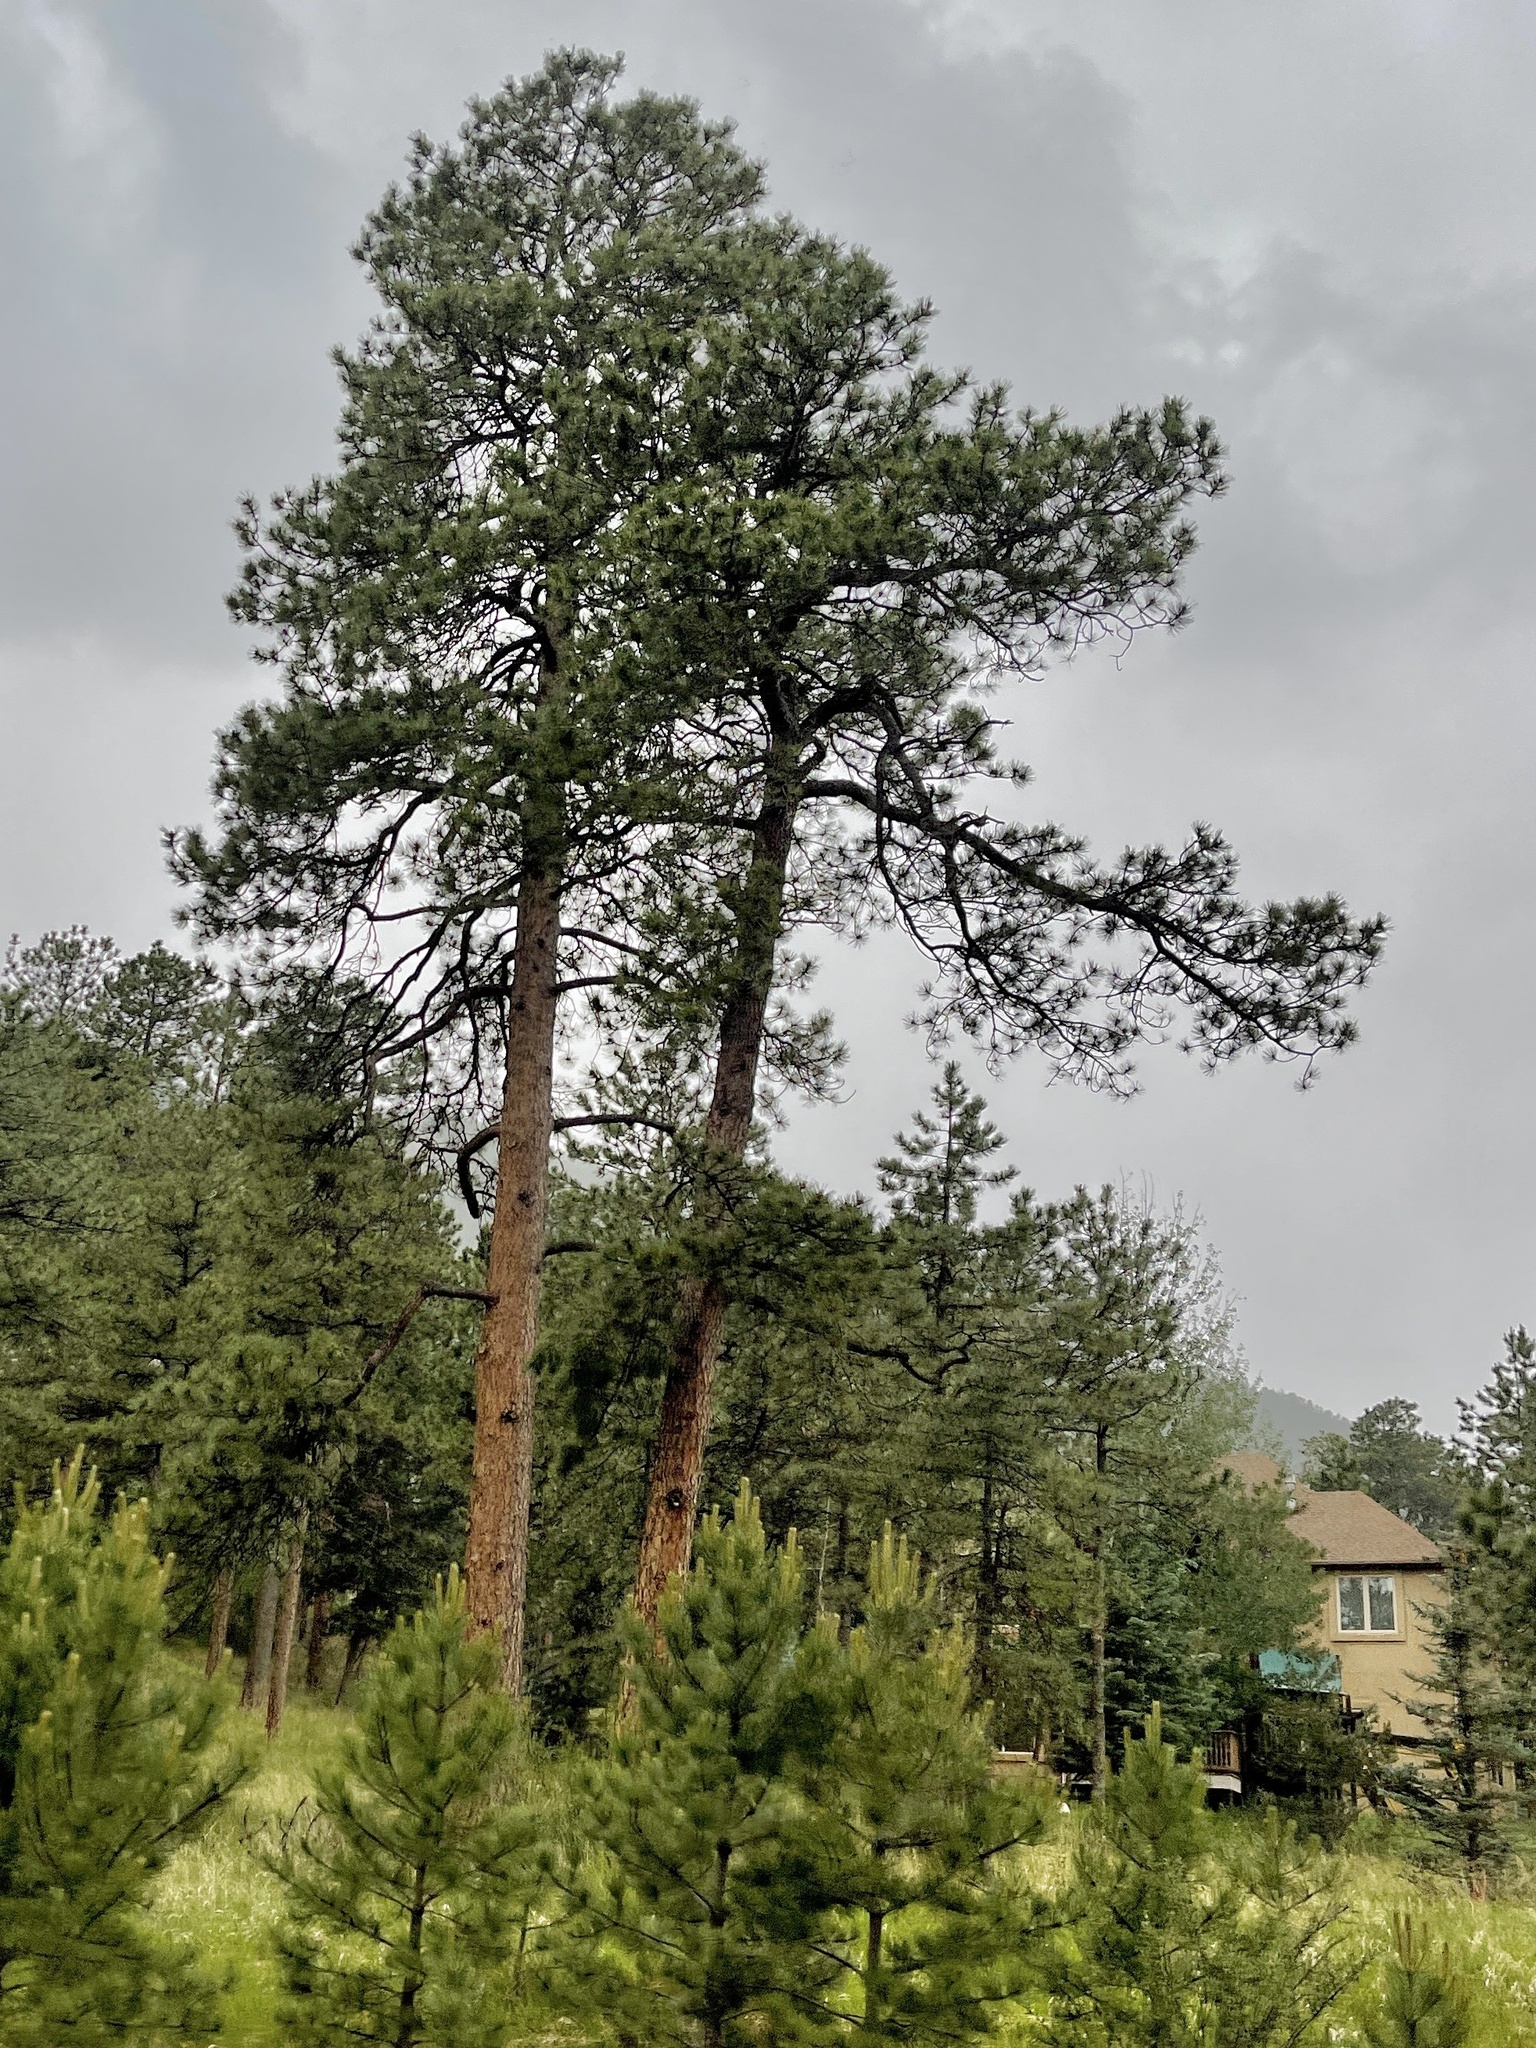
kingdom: Plantae
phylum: Tracheophyta
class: Pinopsida
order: Pinales
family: Pinaceae
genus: Pinus
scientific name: Pinus ponderosa
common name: Western yellow-pine
